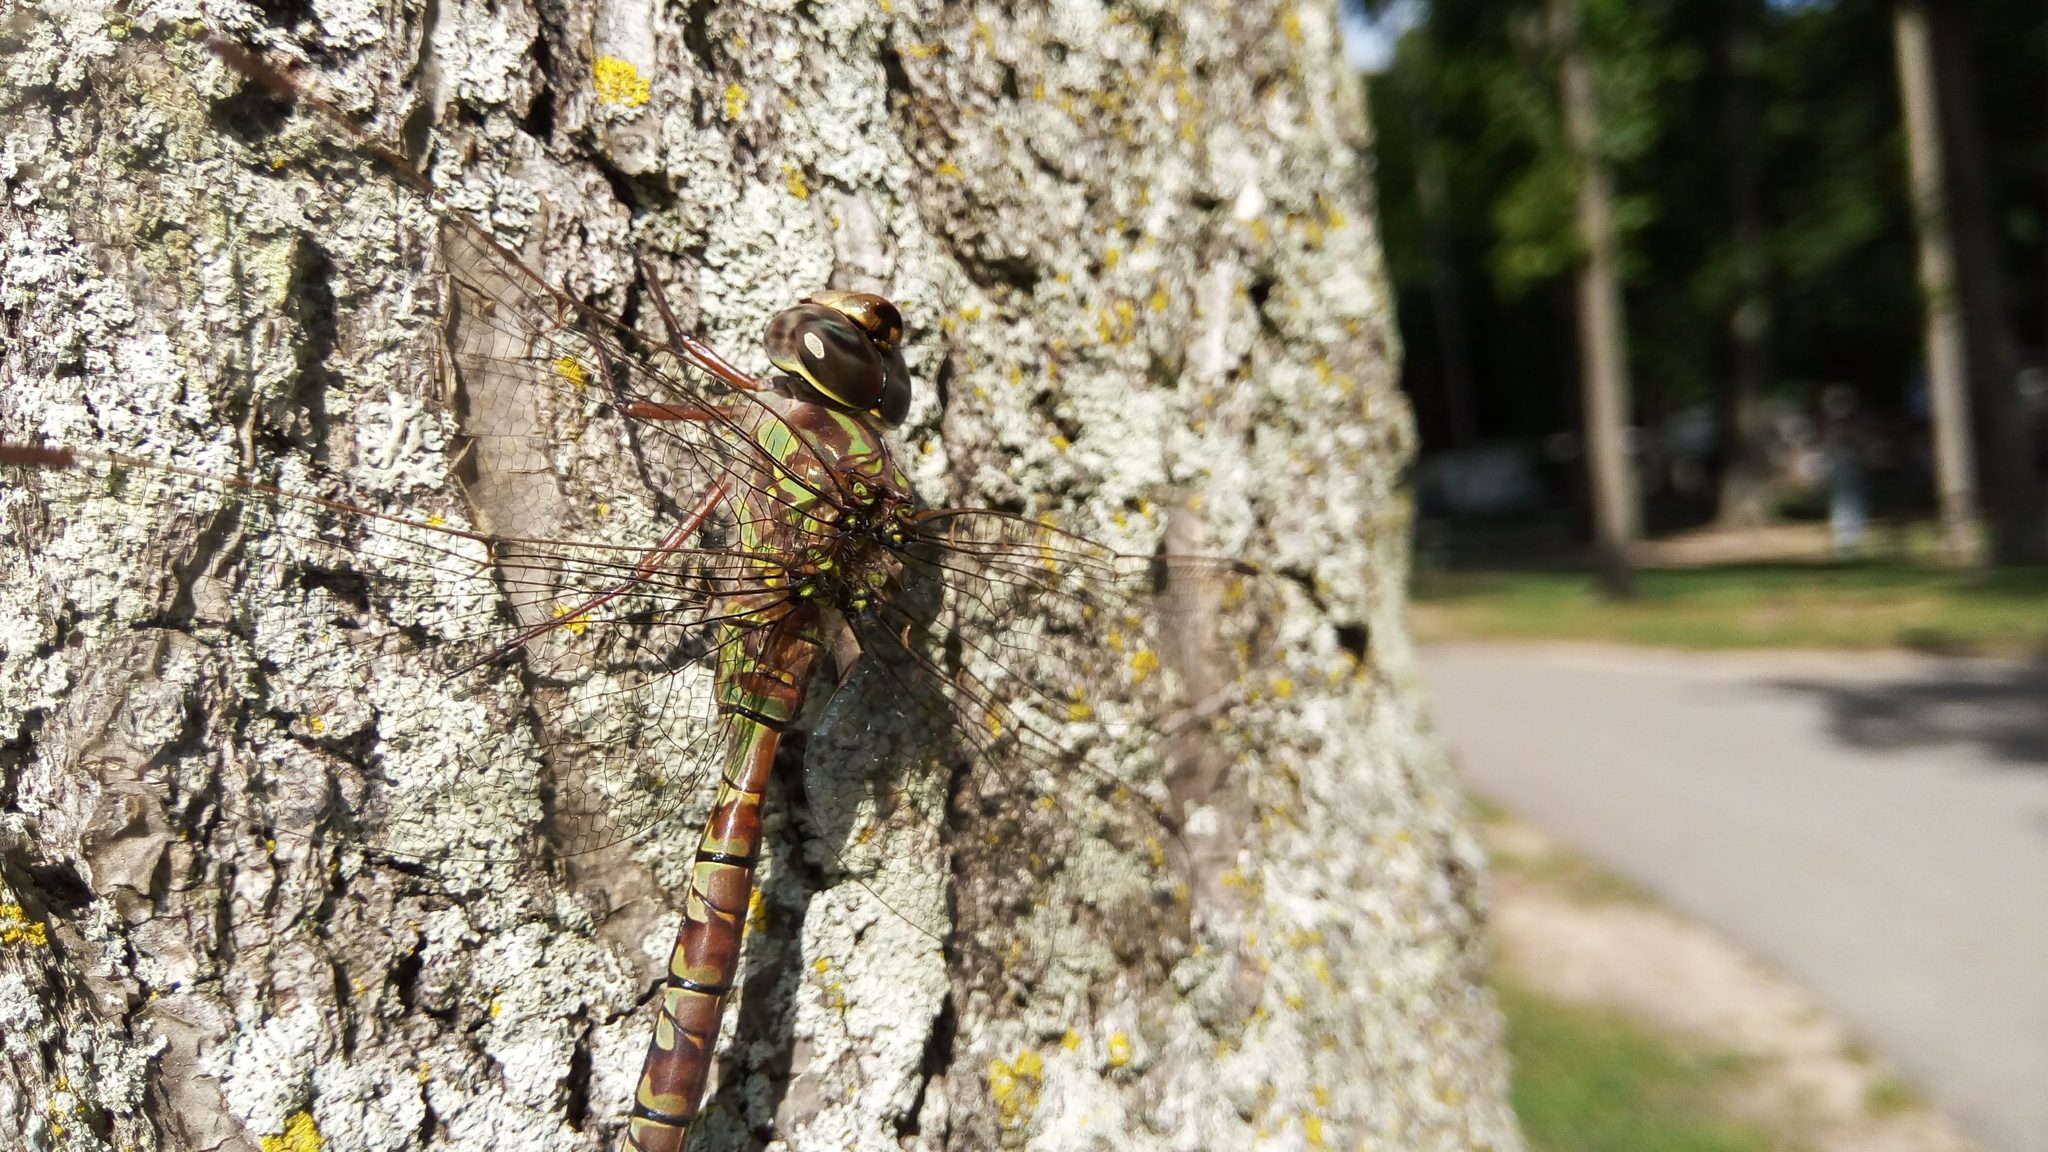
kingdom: Animalia
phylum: Arthropoda
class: Insecta
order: Odonata
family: Aeshnidae
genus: Aeshna
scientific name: Aeshna canadensis
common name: Canada darner
